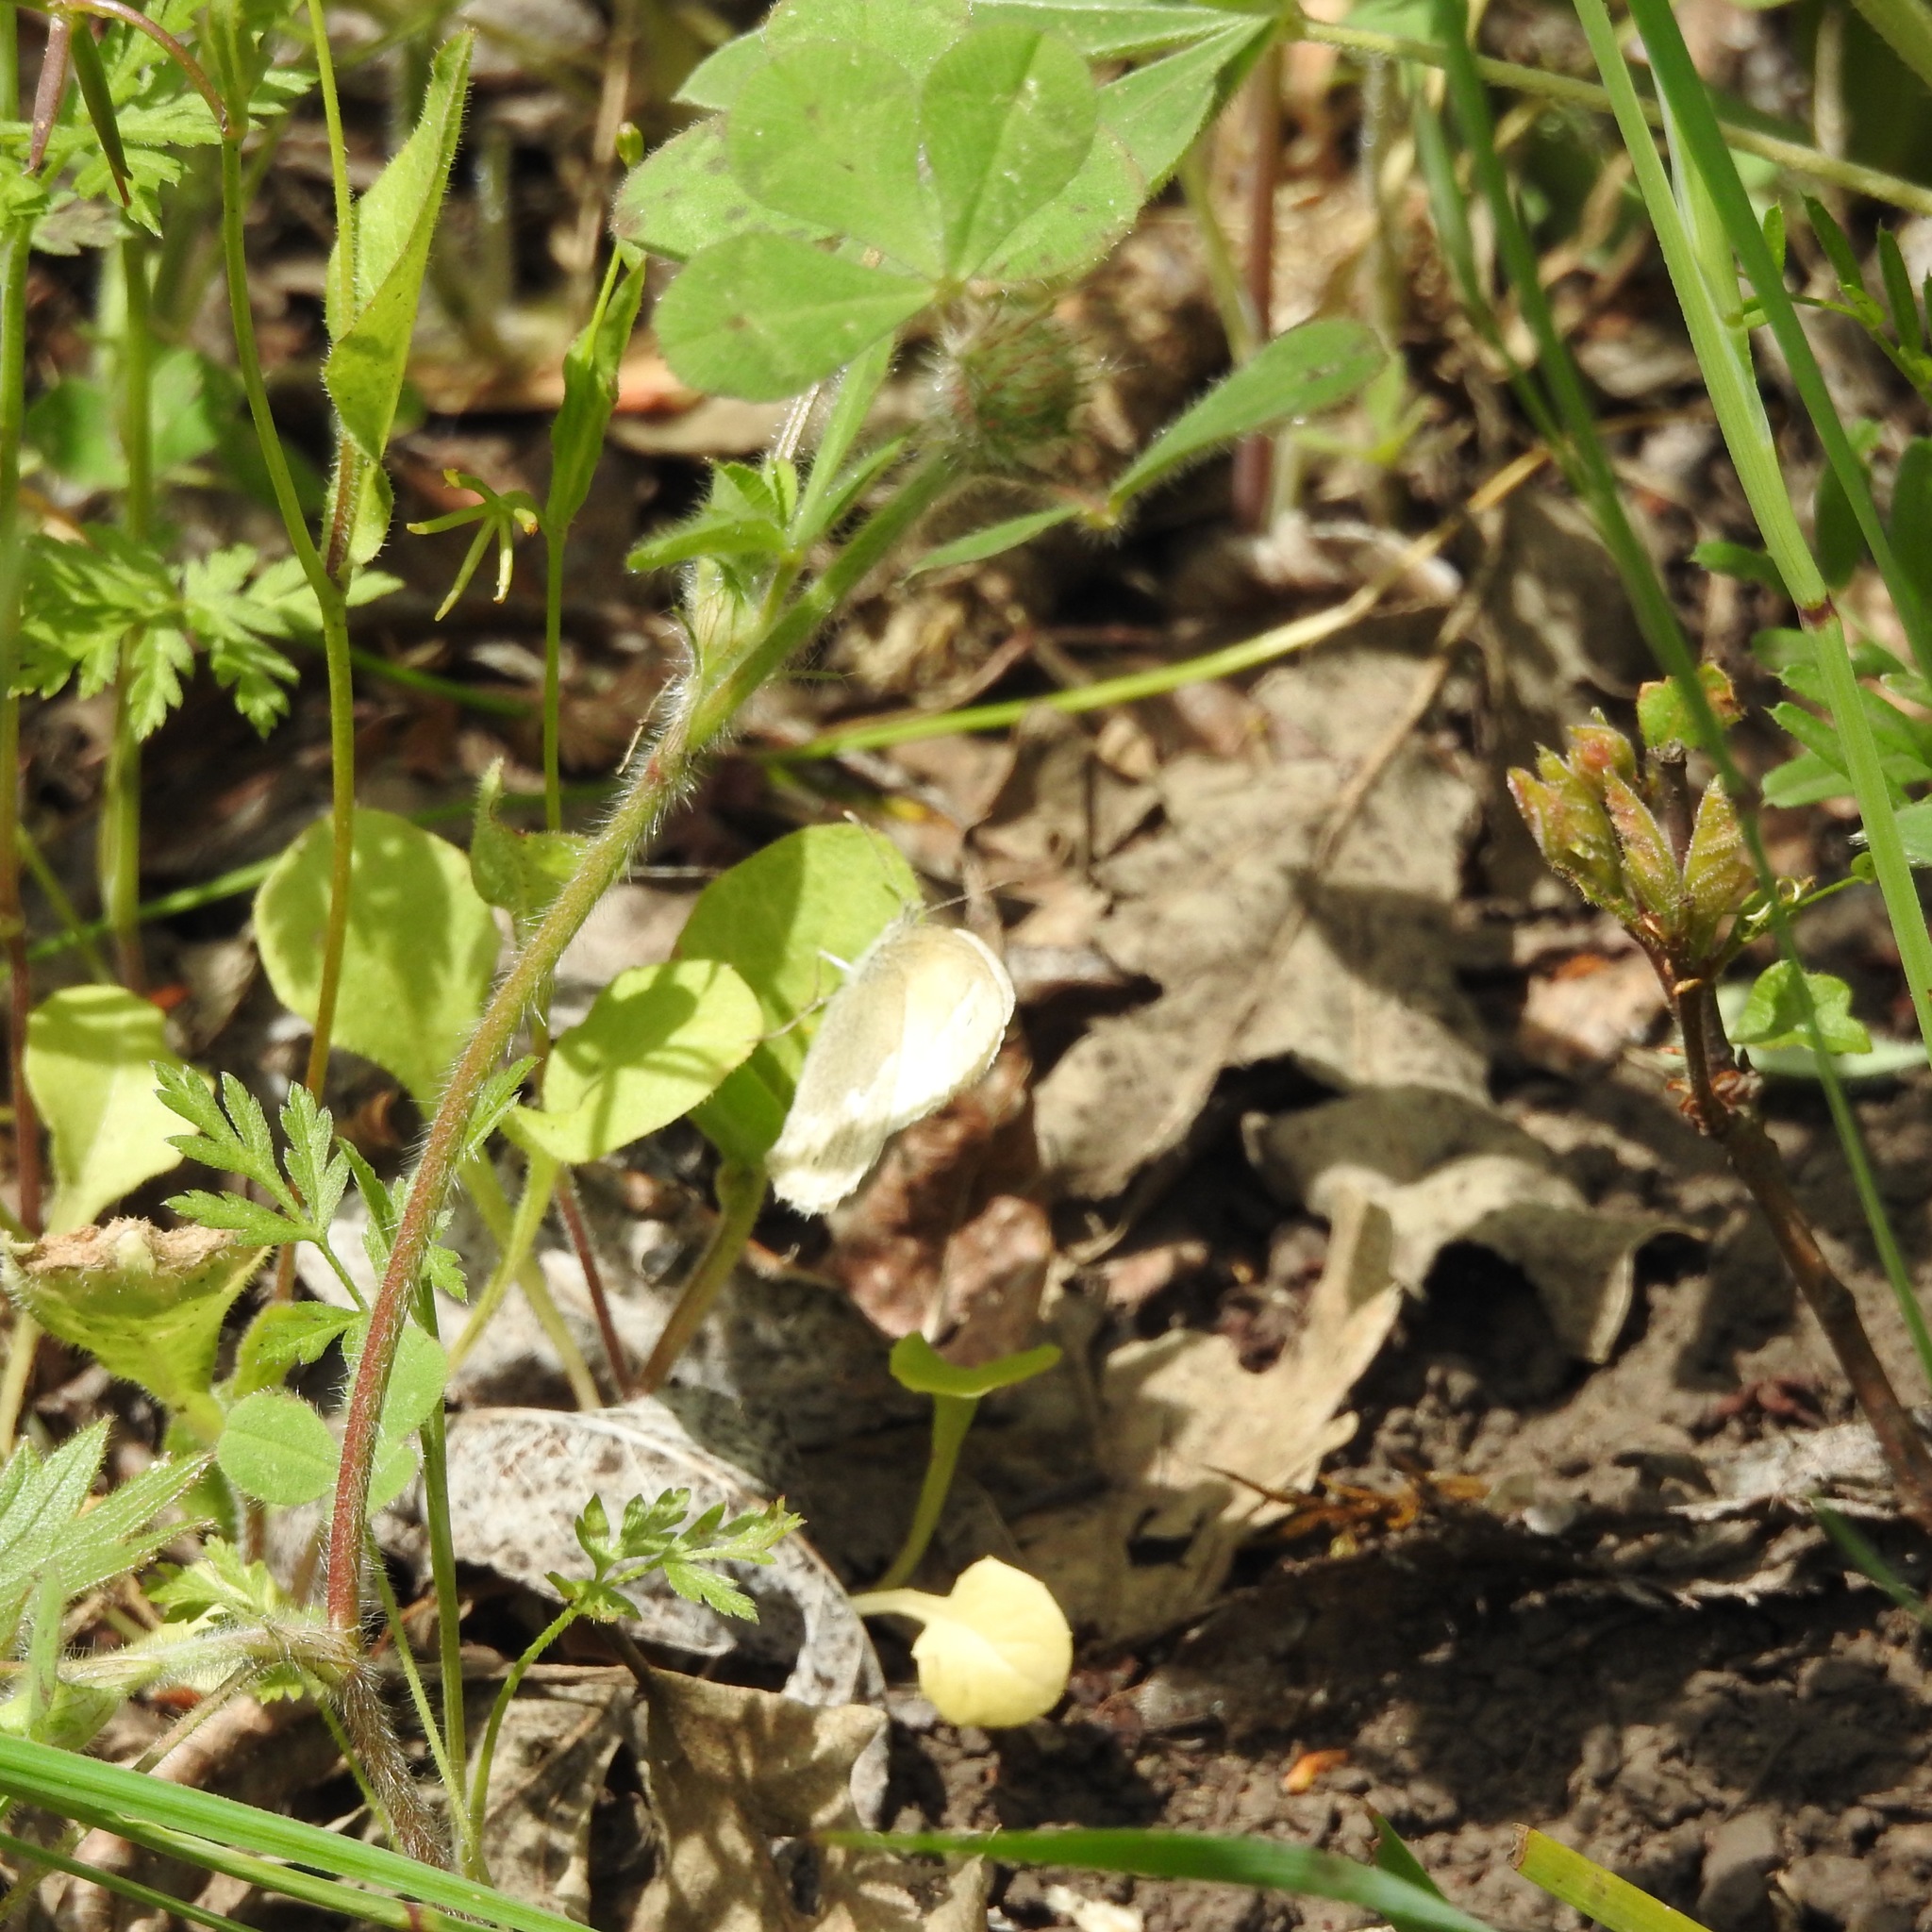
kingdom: Animalia
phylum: Arthropoda
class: Insecta
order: Lepidoptera
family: Nymphalidae
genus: Coenonympha
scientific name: Coenonympha california
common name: Common ringlet
